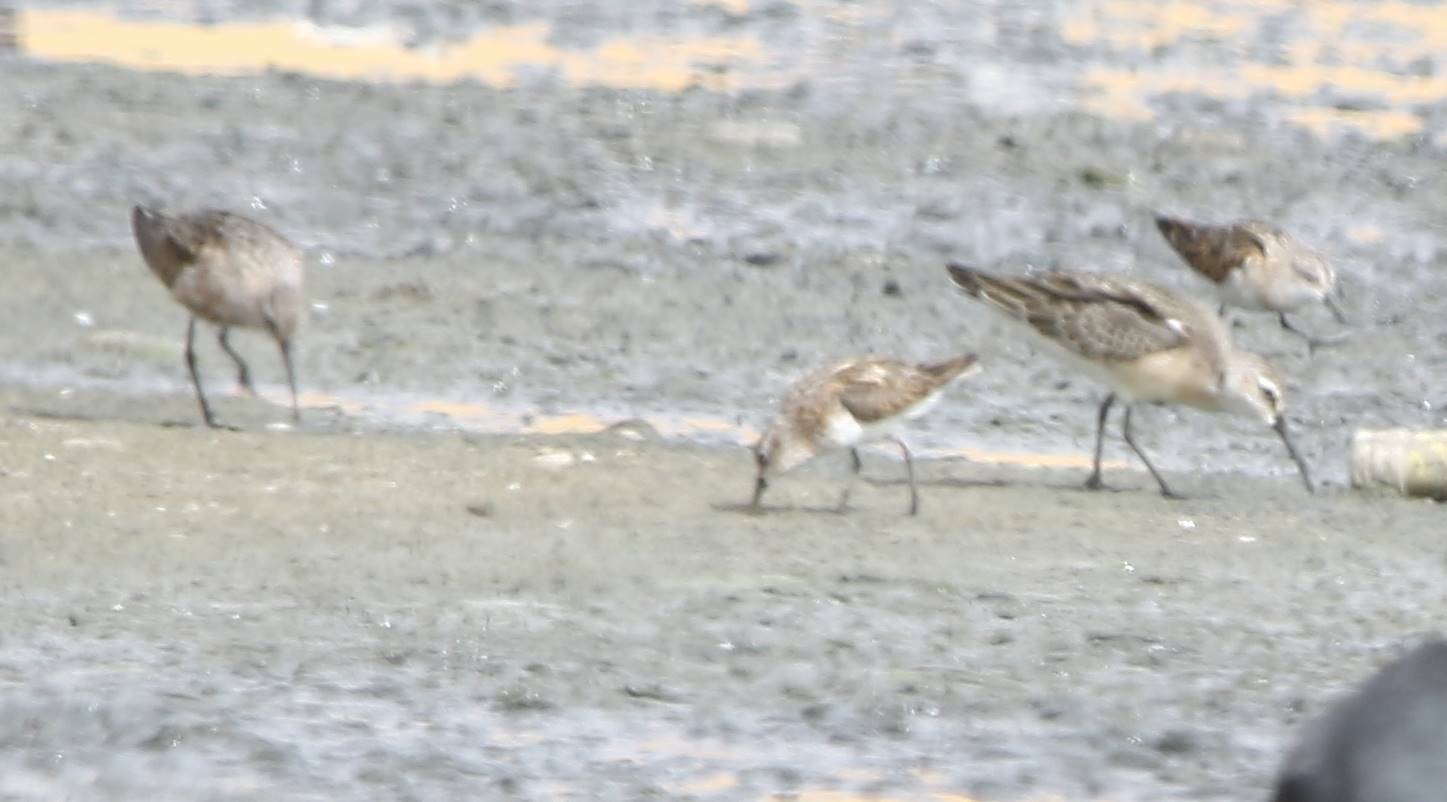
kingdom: Animalia
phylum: Chordata
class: Aves
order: Charadriiformes
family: Scolopacidae
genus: Calidris
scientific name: Calidris ferruginea
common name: Curlew sandpiper
